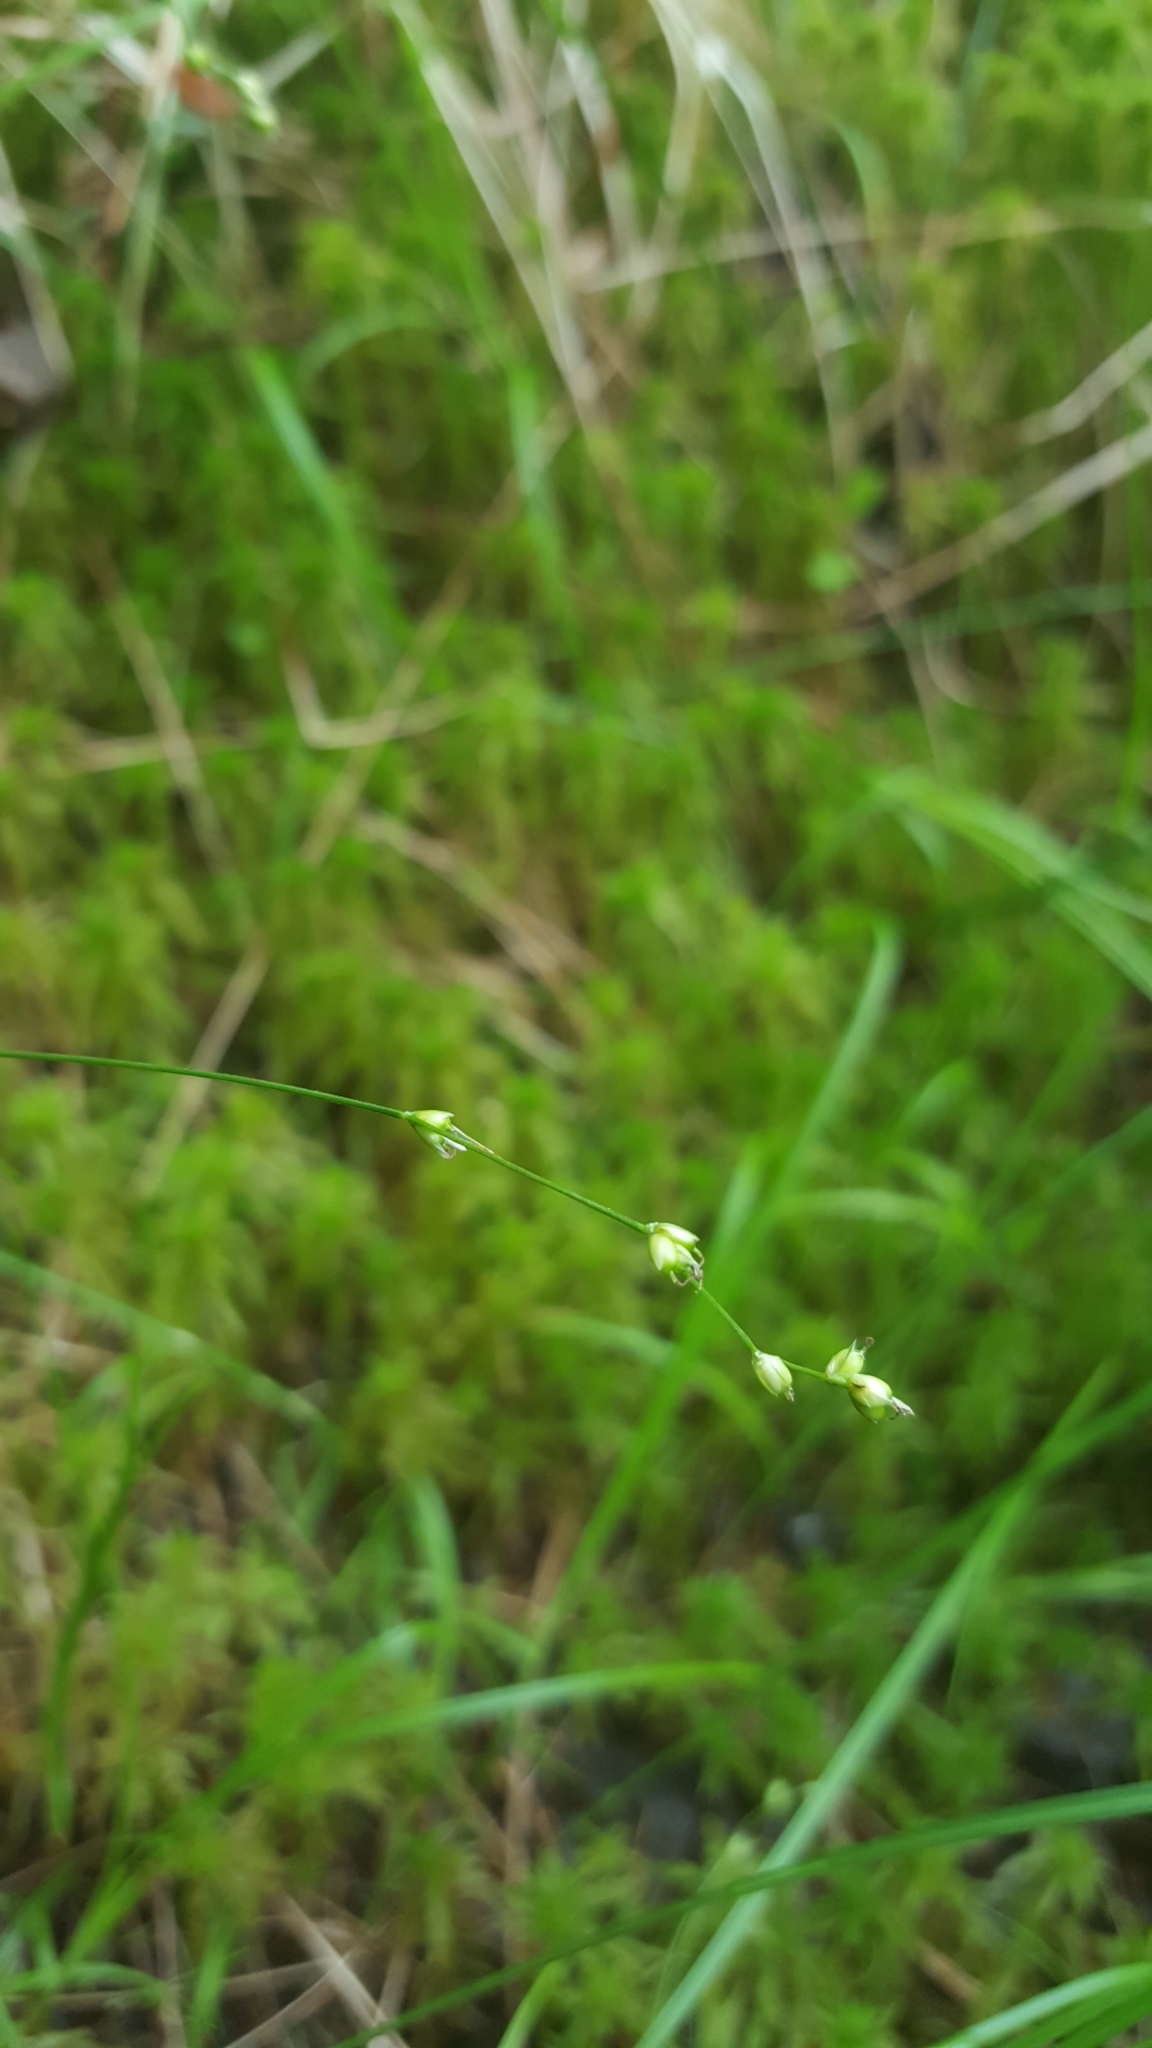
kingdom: Plantae
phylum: Tracheophyta
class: Liliopsida
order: Poales
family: Cyperaceae
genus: Carex
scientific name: Carex disperma
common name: Short-leaved sedge
